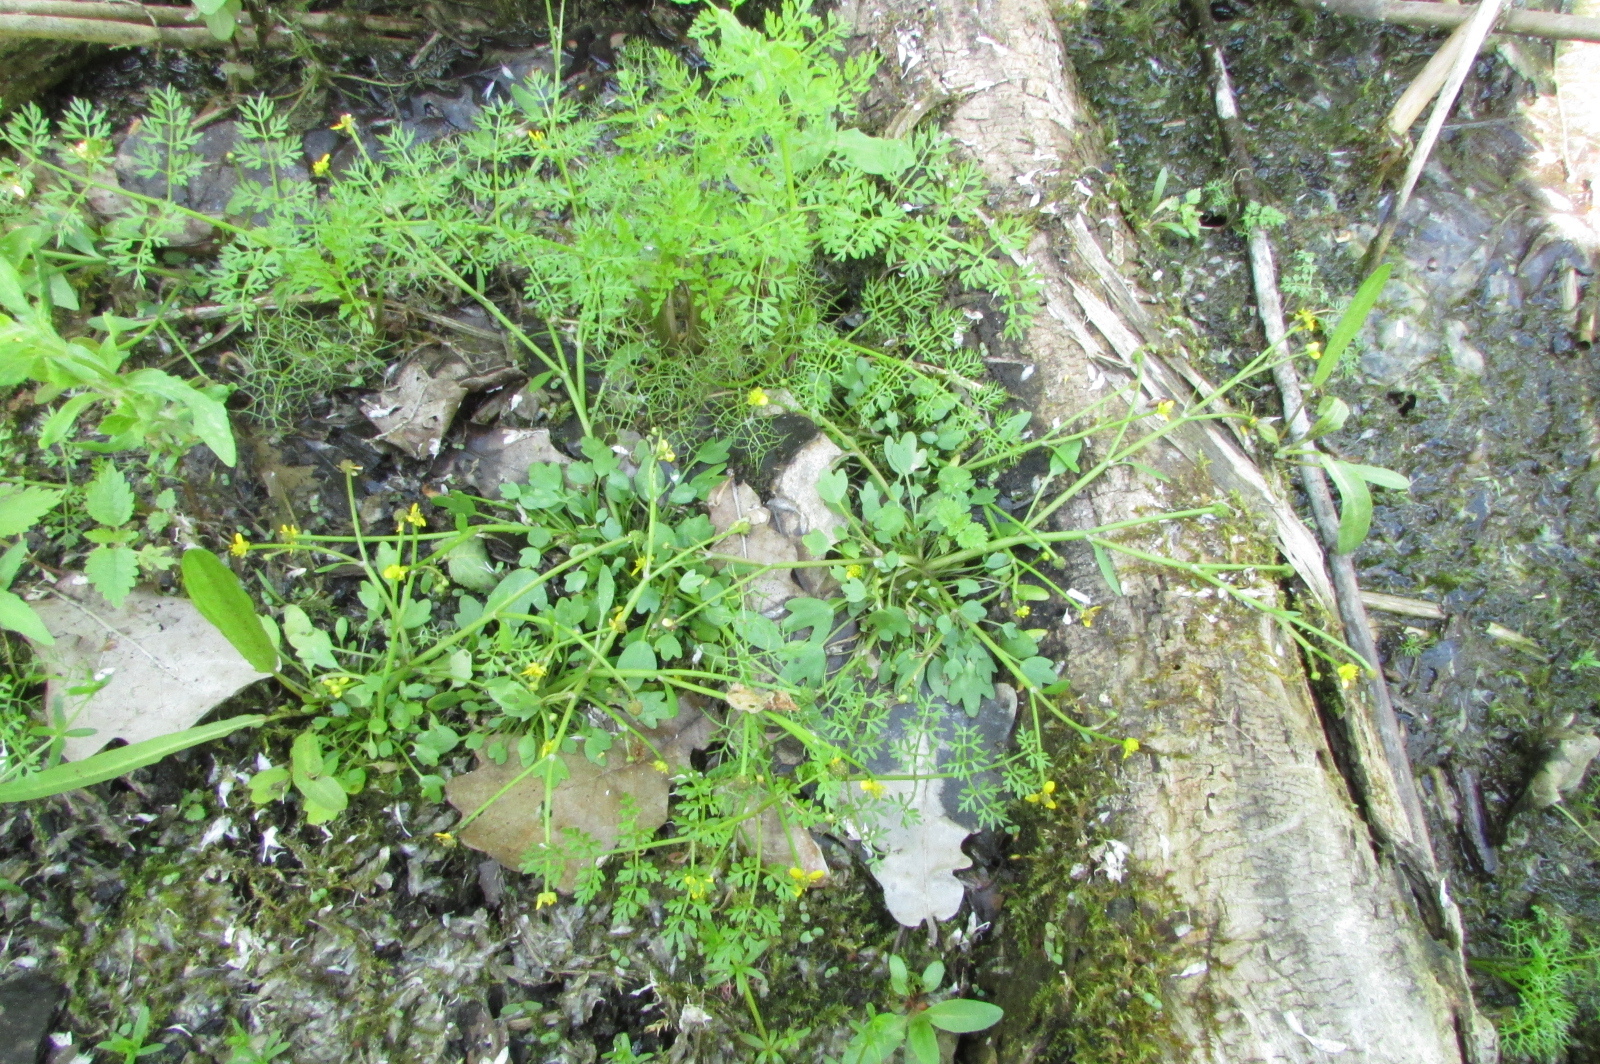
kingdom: Plantae
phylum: Tracheophyta
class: Magnoliopsida
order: Ranunculales
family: Ranunculaceae
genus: Ranunculus
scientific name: Ranunculus polyphyllus
